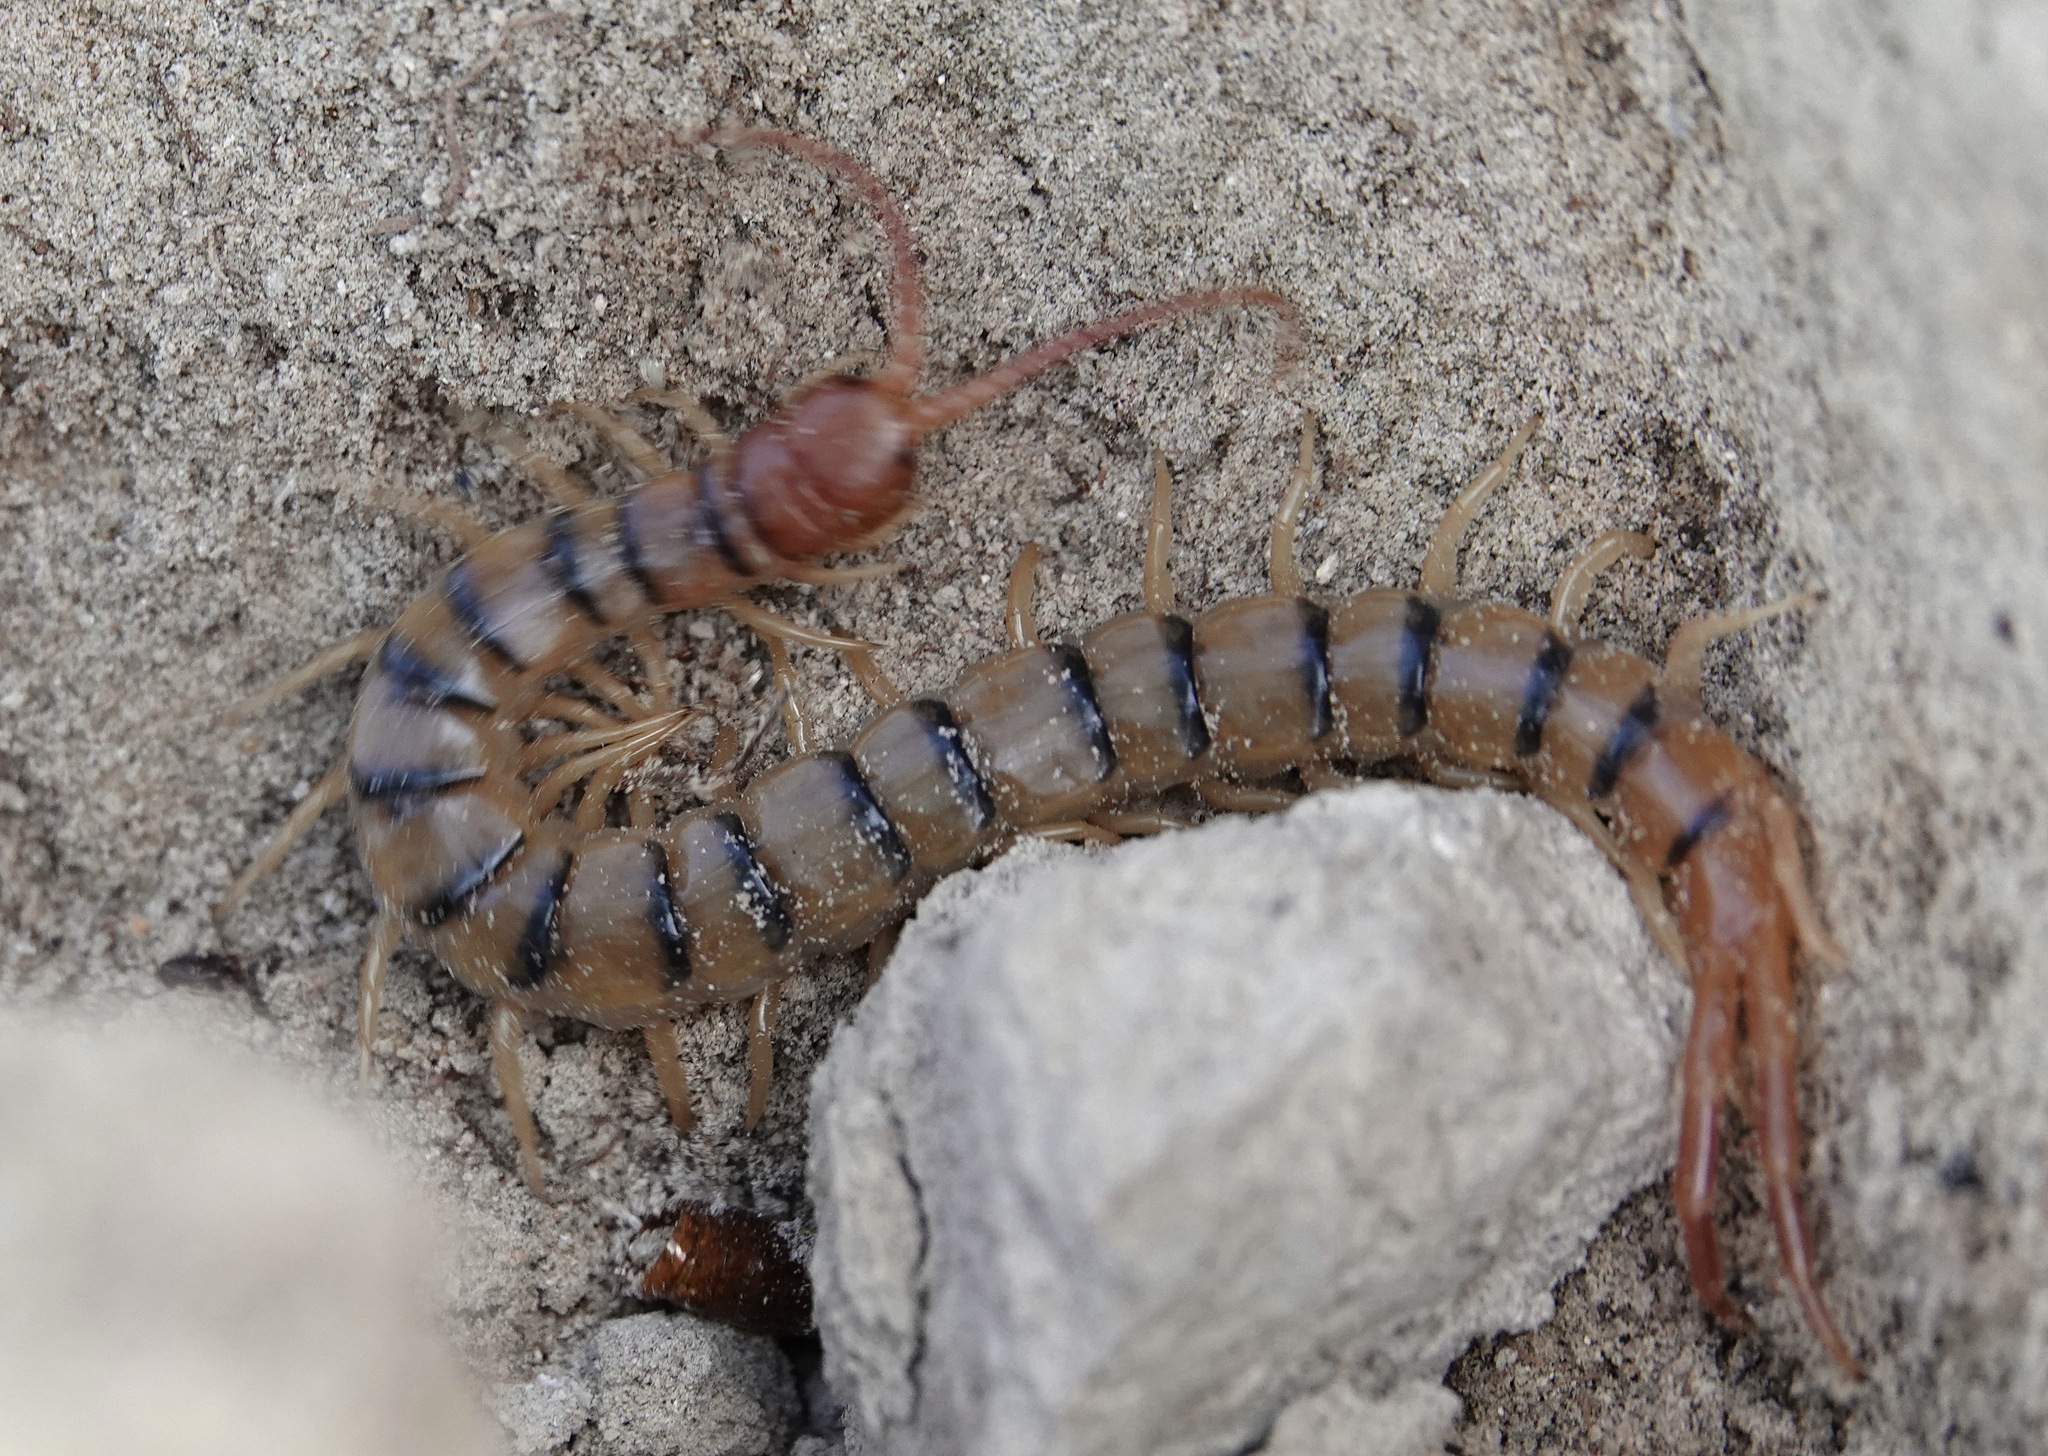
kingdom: Animalia
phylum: Arthropoda
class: Chilopoda
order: Scolopendromorpha
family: Scolopendridae
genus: Scolopendra
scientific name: Scolopendra polymorpha
